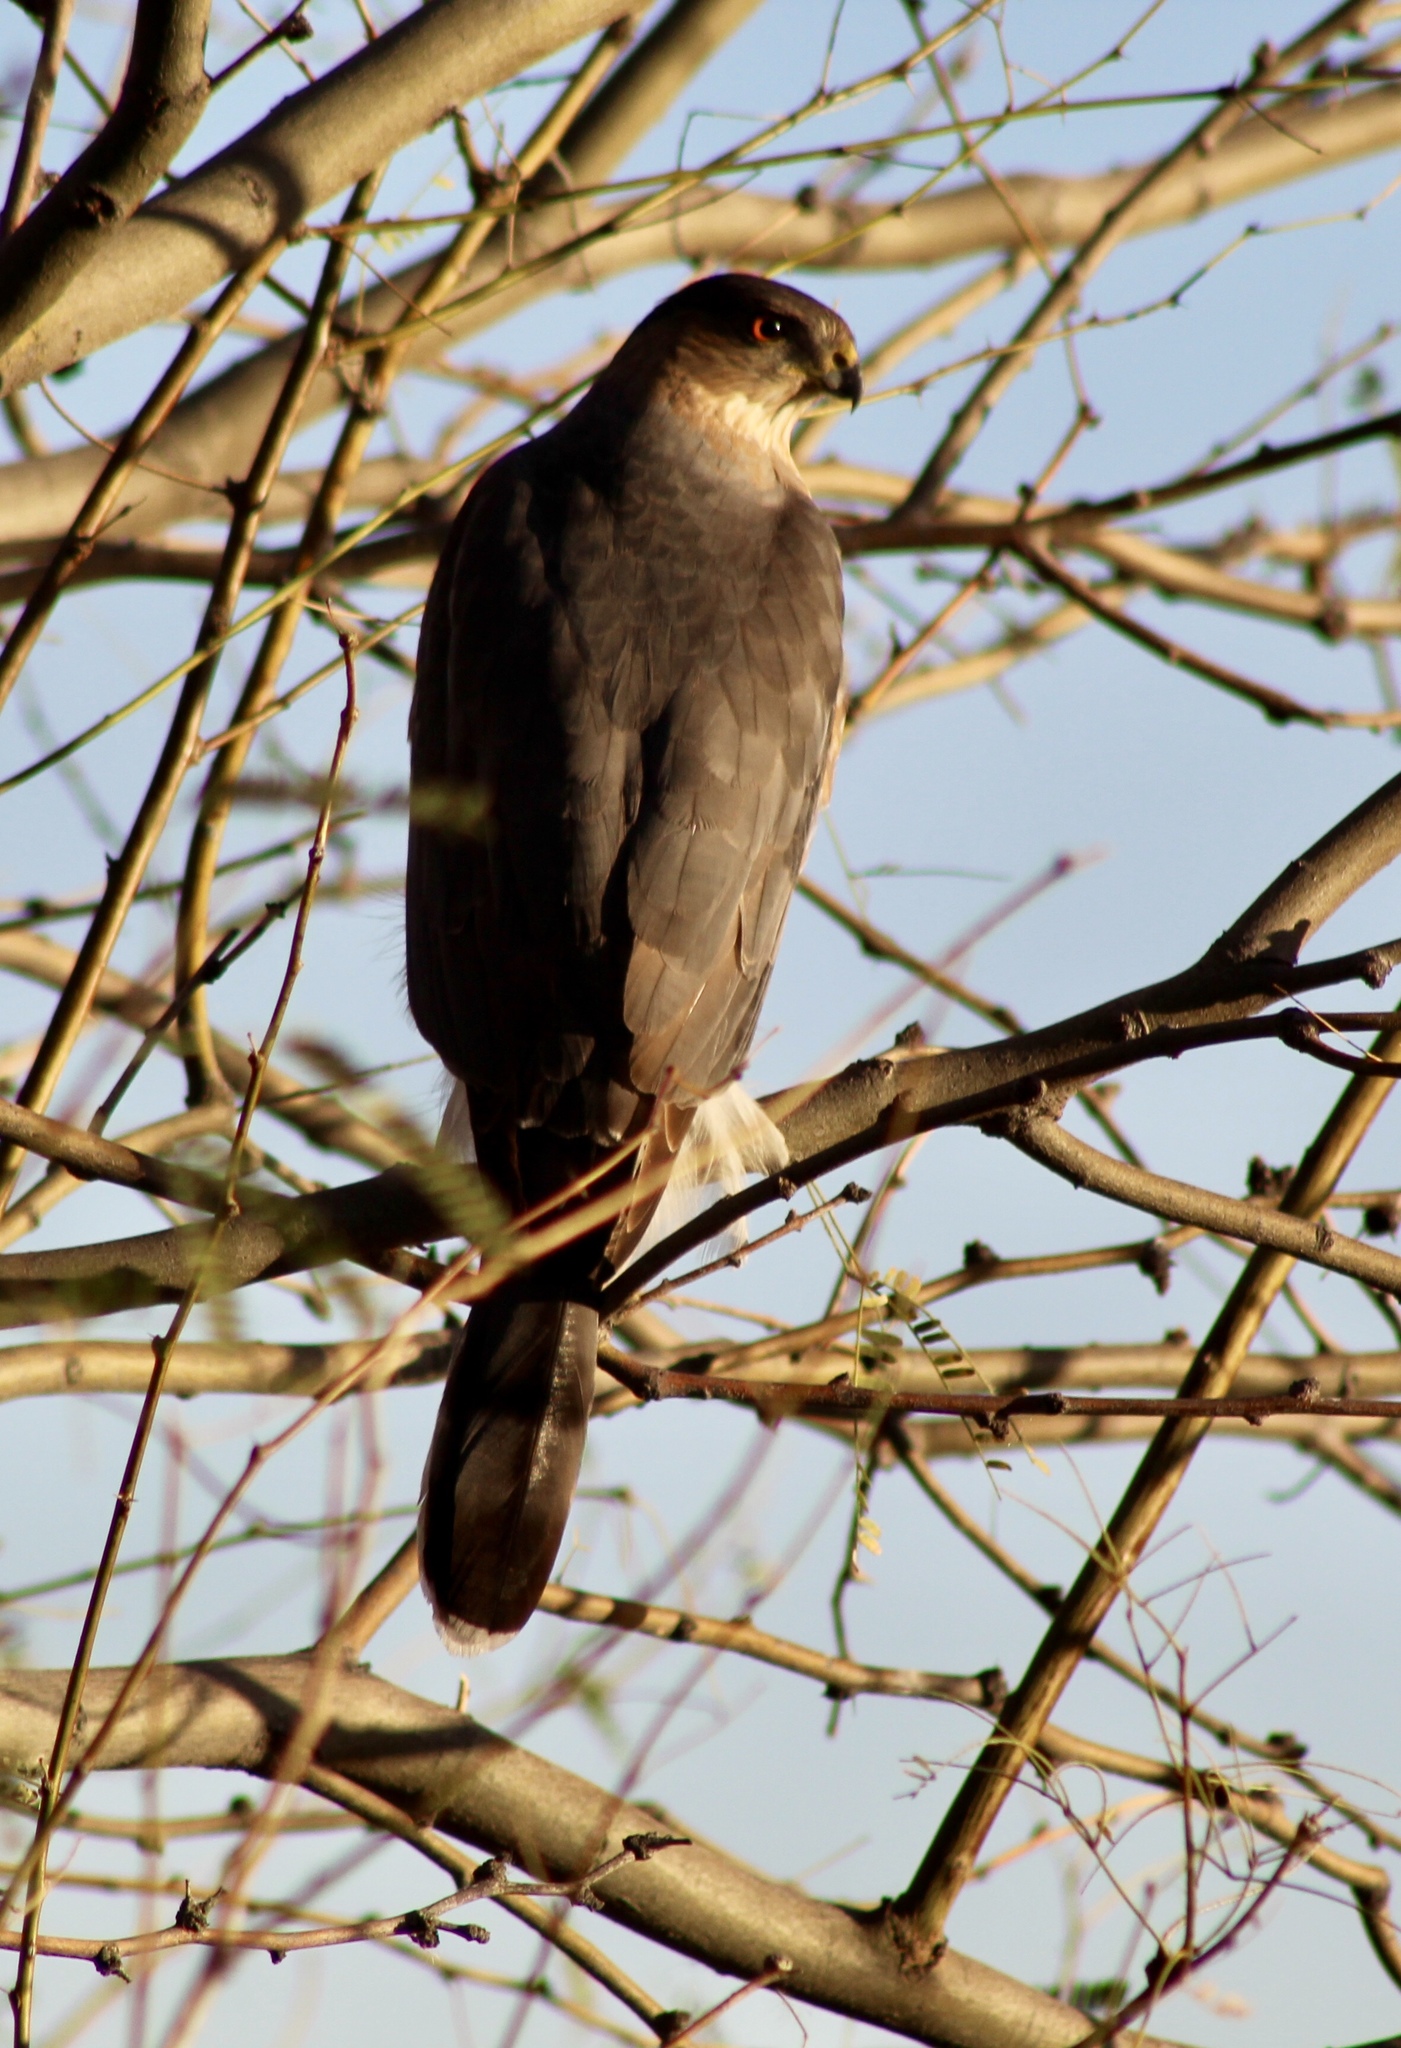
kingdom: Animalia
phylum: Chordata
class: Aves
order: Accipitriformes
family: Accipitridae
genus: Accipiter
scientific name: Accipiter cooperii
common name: Cooper's hawk
